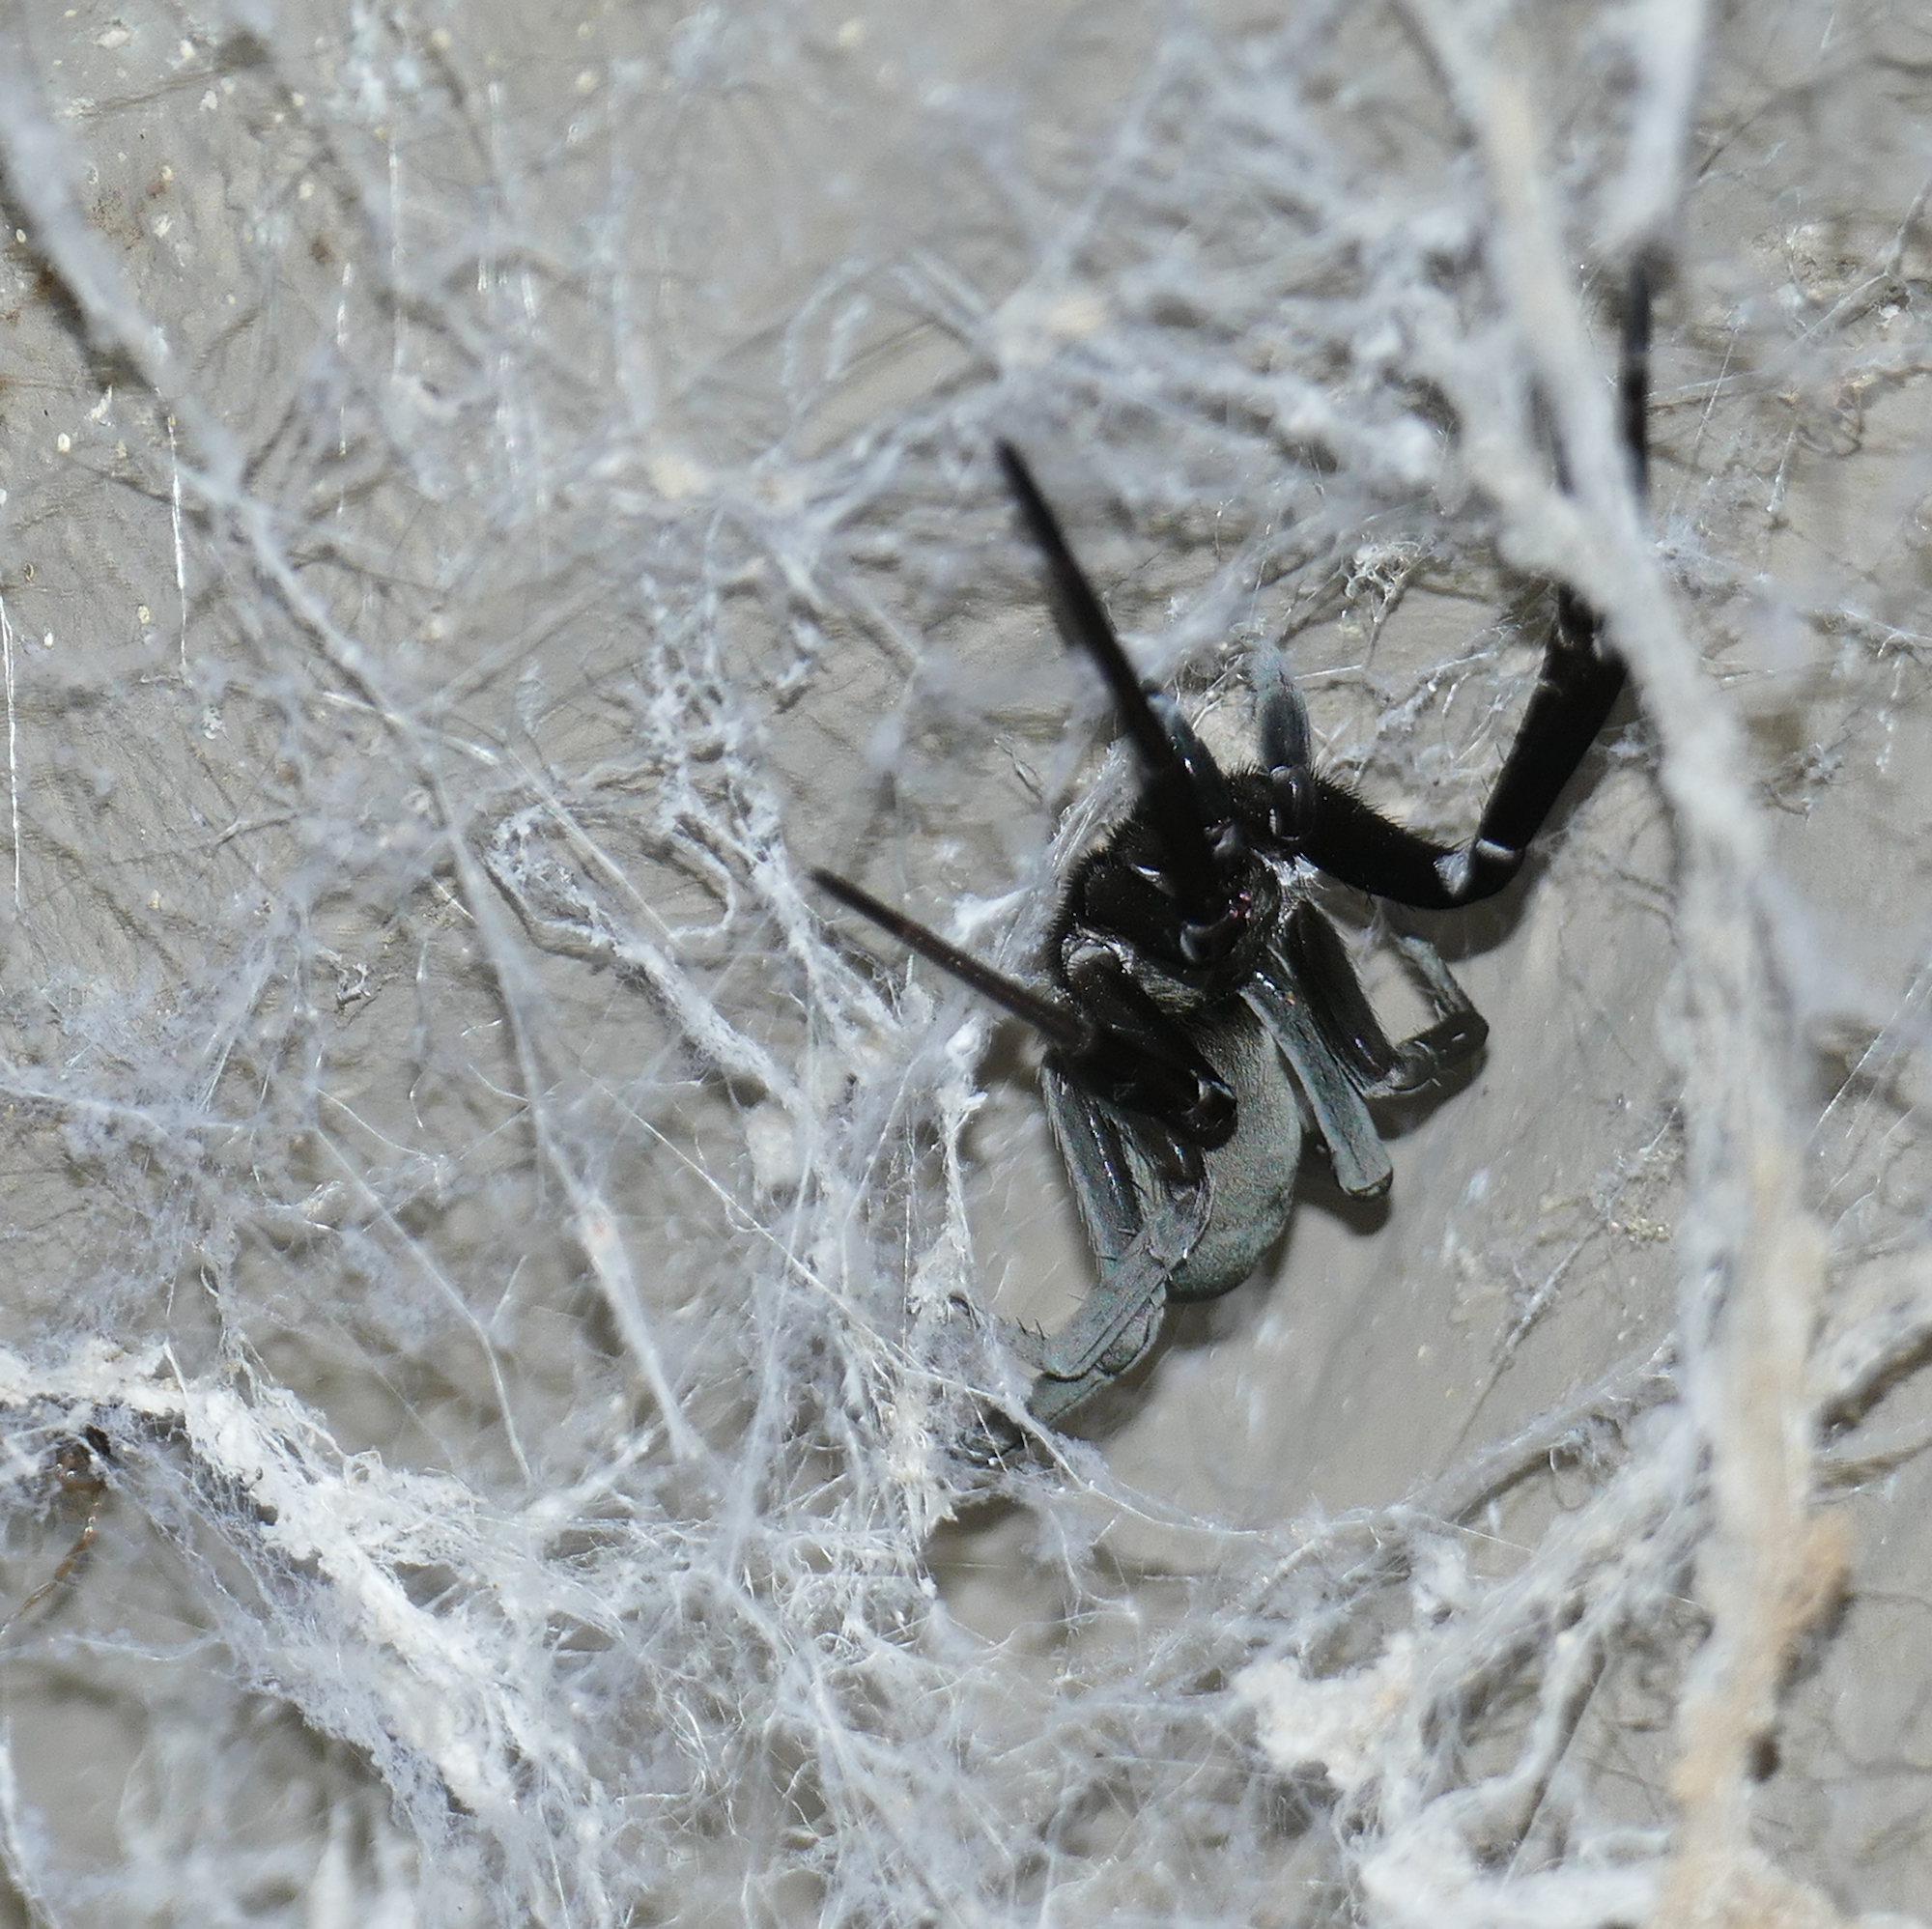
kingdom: Animalia
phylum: Arthropoda
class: Arachnida
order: Araneae
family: Filistatidae
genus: Kukulcania
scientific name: Kukulcania hibernalis
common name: Crevice weaver
